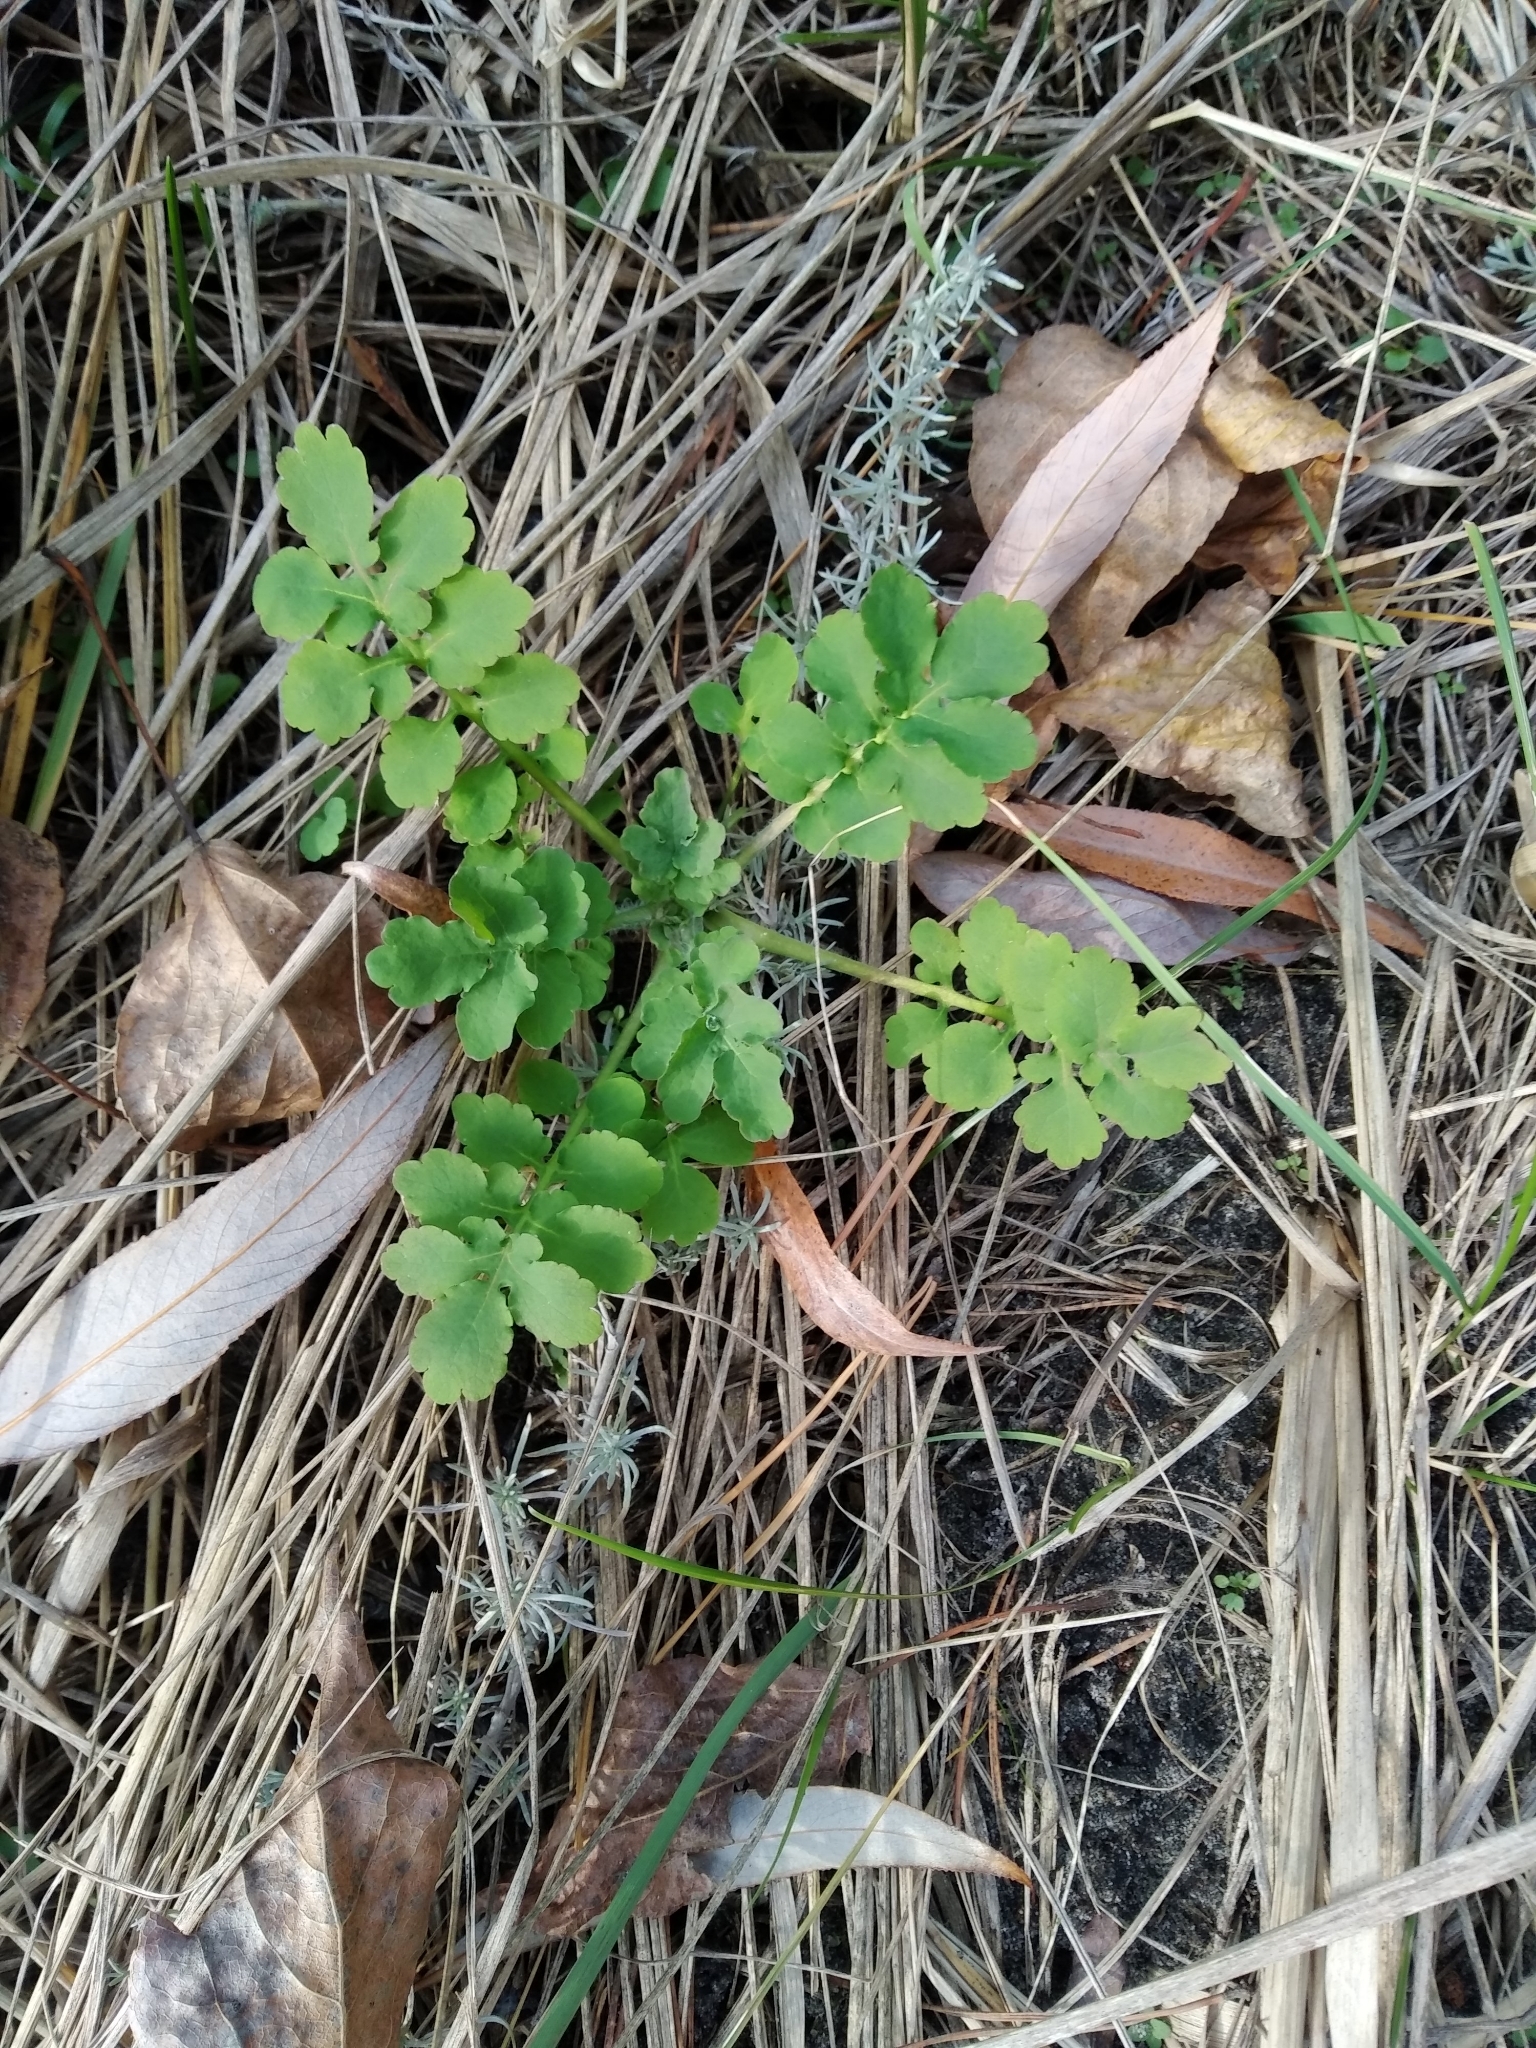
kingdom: Plantae
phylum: Tracheophyta
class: Magnoliopsida
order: Ranunculales
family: Papaveraceae
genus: Chelidonium
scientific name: Chelidonium majus
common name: Greater celandine
